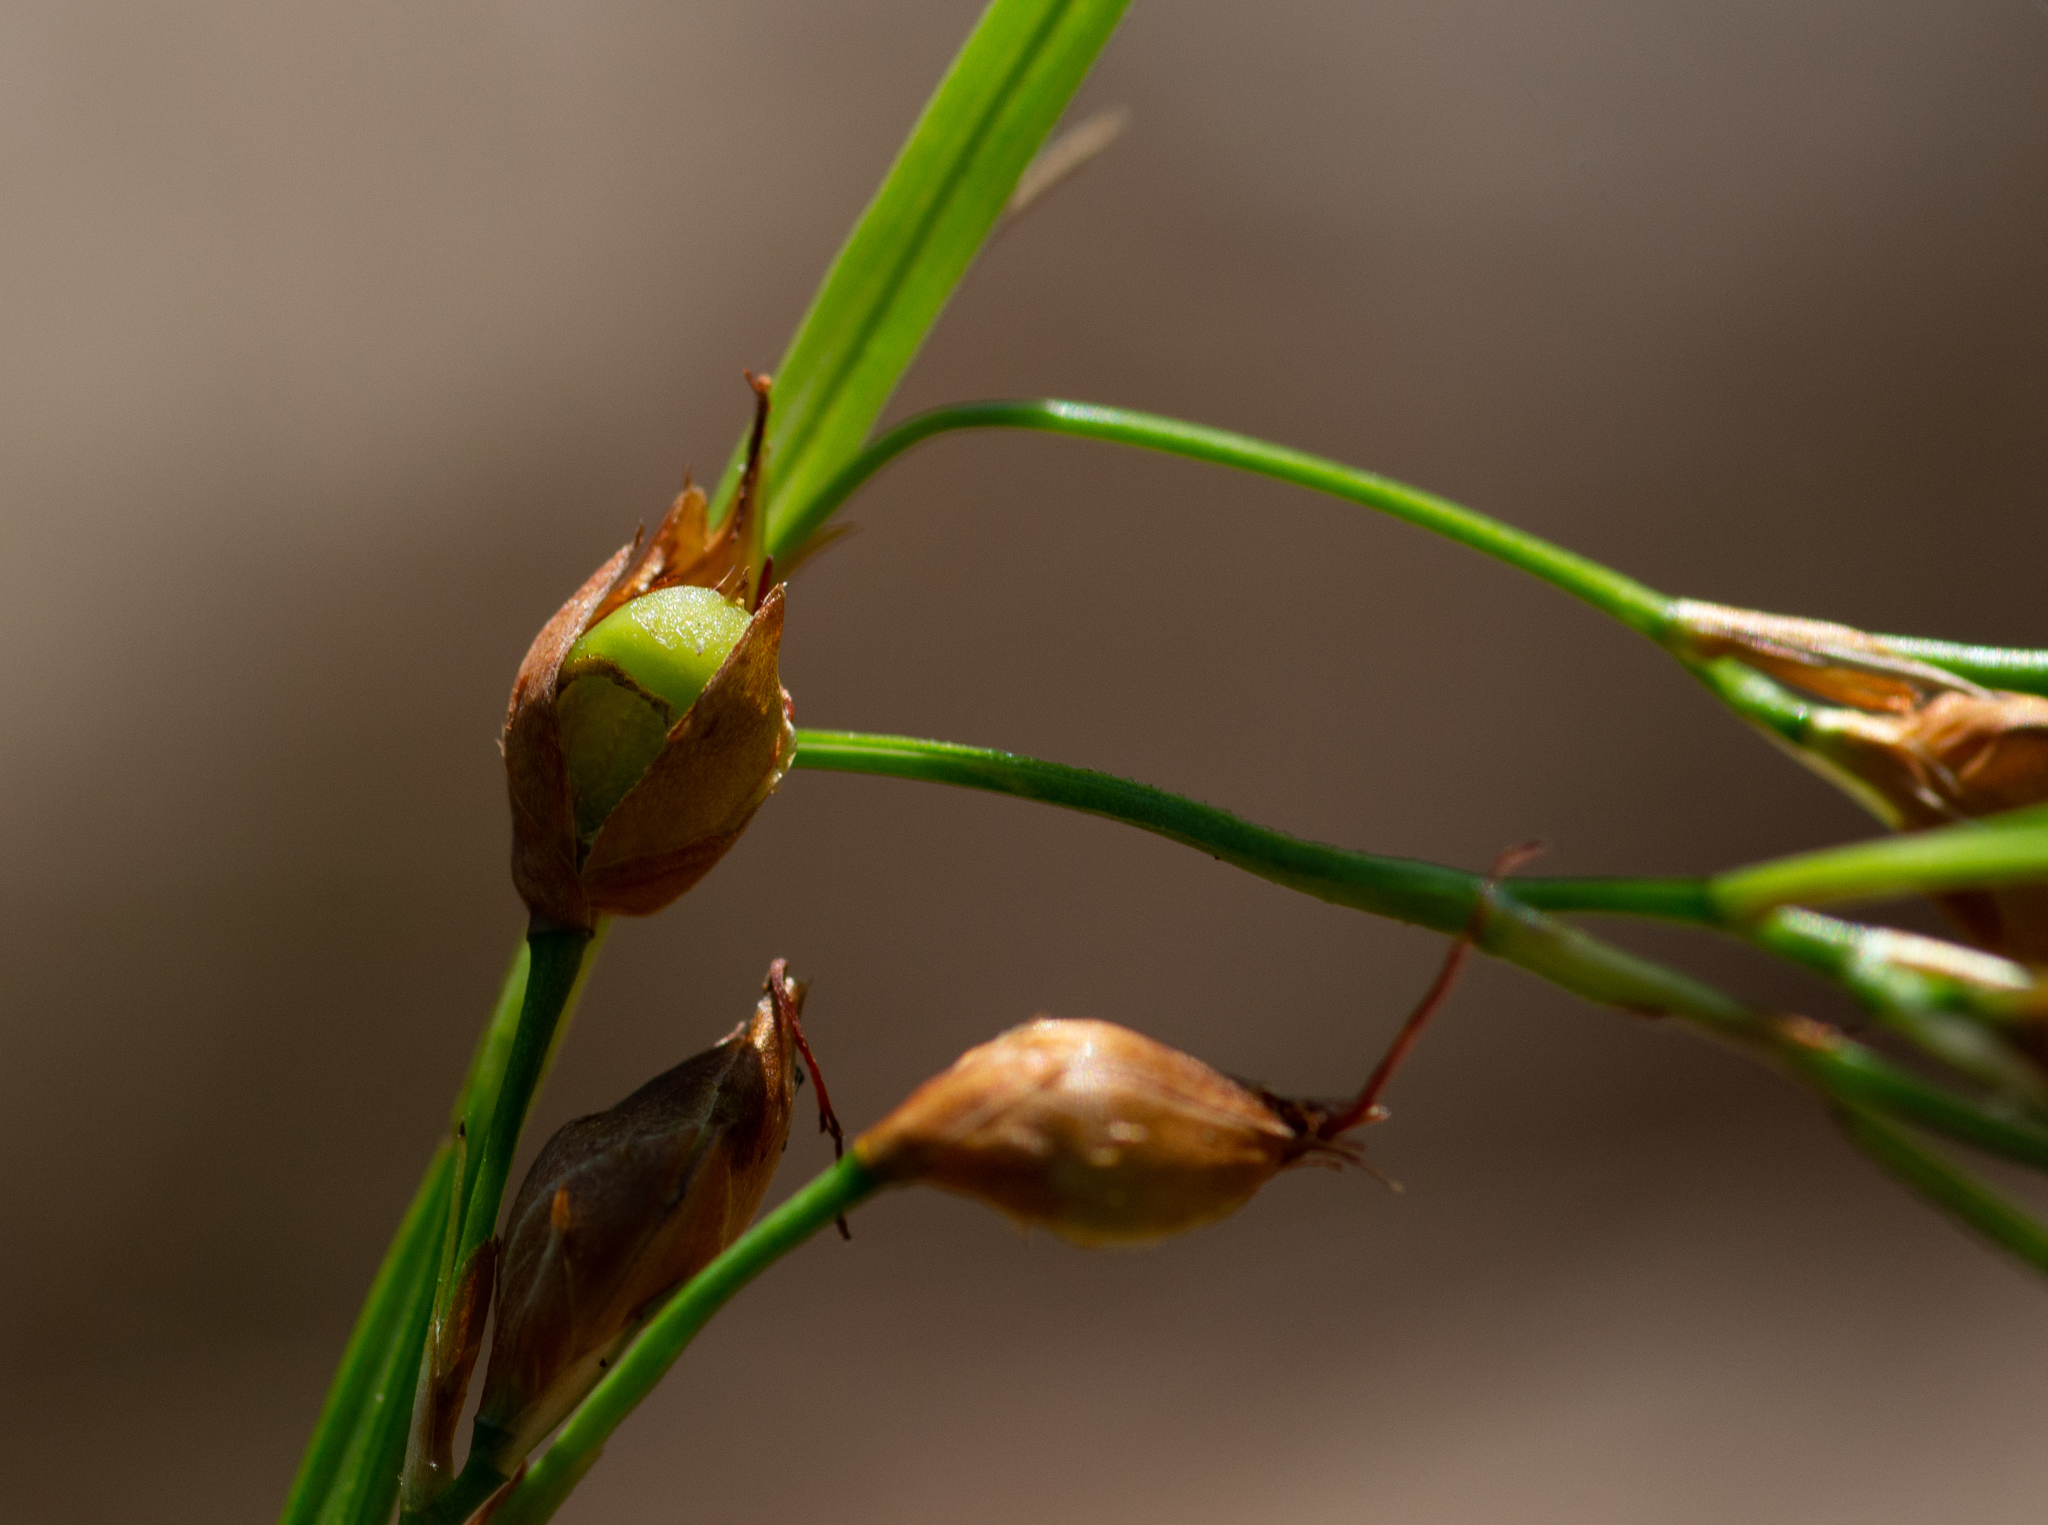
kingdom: Plantae
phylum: Tracheophyta
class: Liliopsida
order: Poales
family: Cyperaceae
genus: Rhynchospora
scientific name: Rhynchospora megalocarpa
